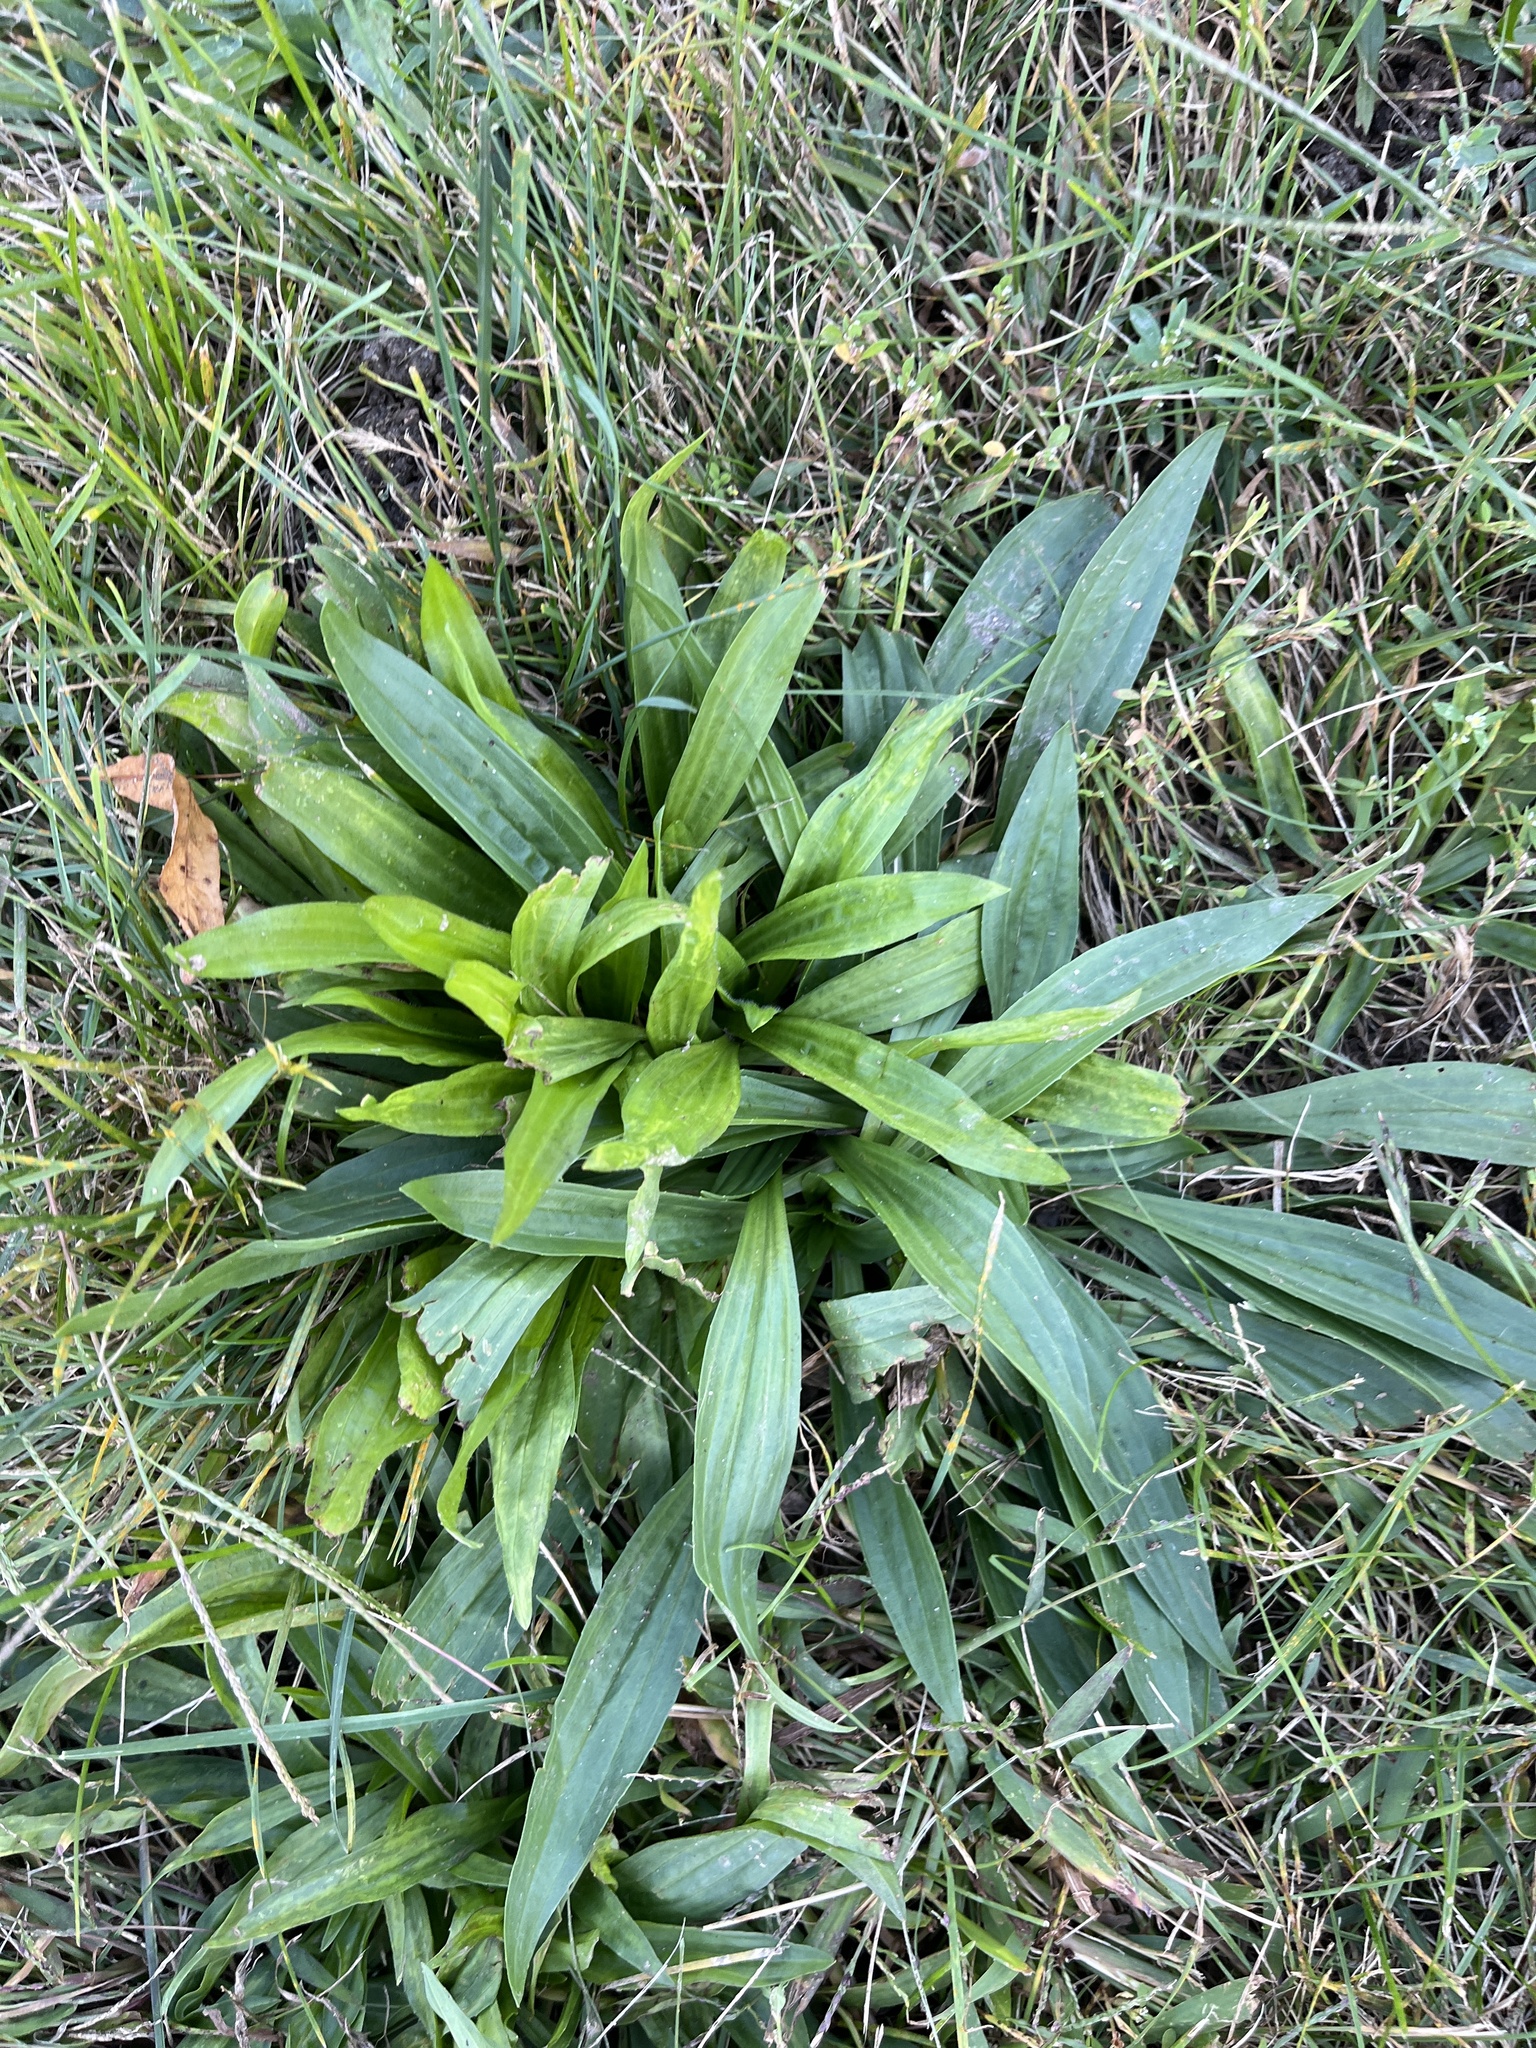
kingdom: Plantae
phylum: Tracheophyta
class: Magnoliopsida
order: Lamiales
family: Plantaginaceae
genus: Plantago
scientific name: Plantago lanceolata
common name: Ribwort plantain
